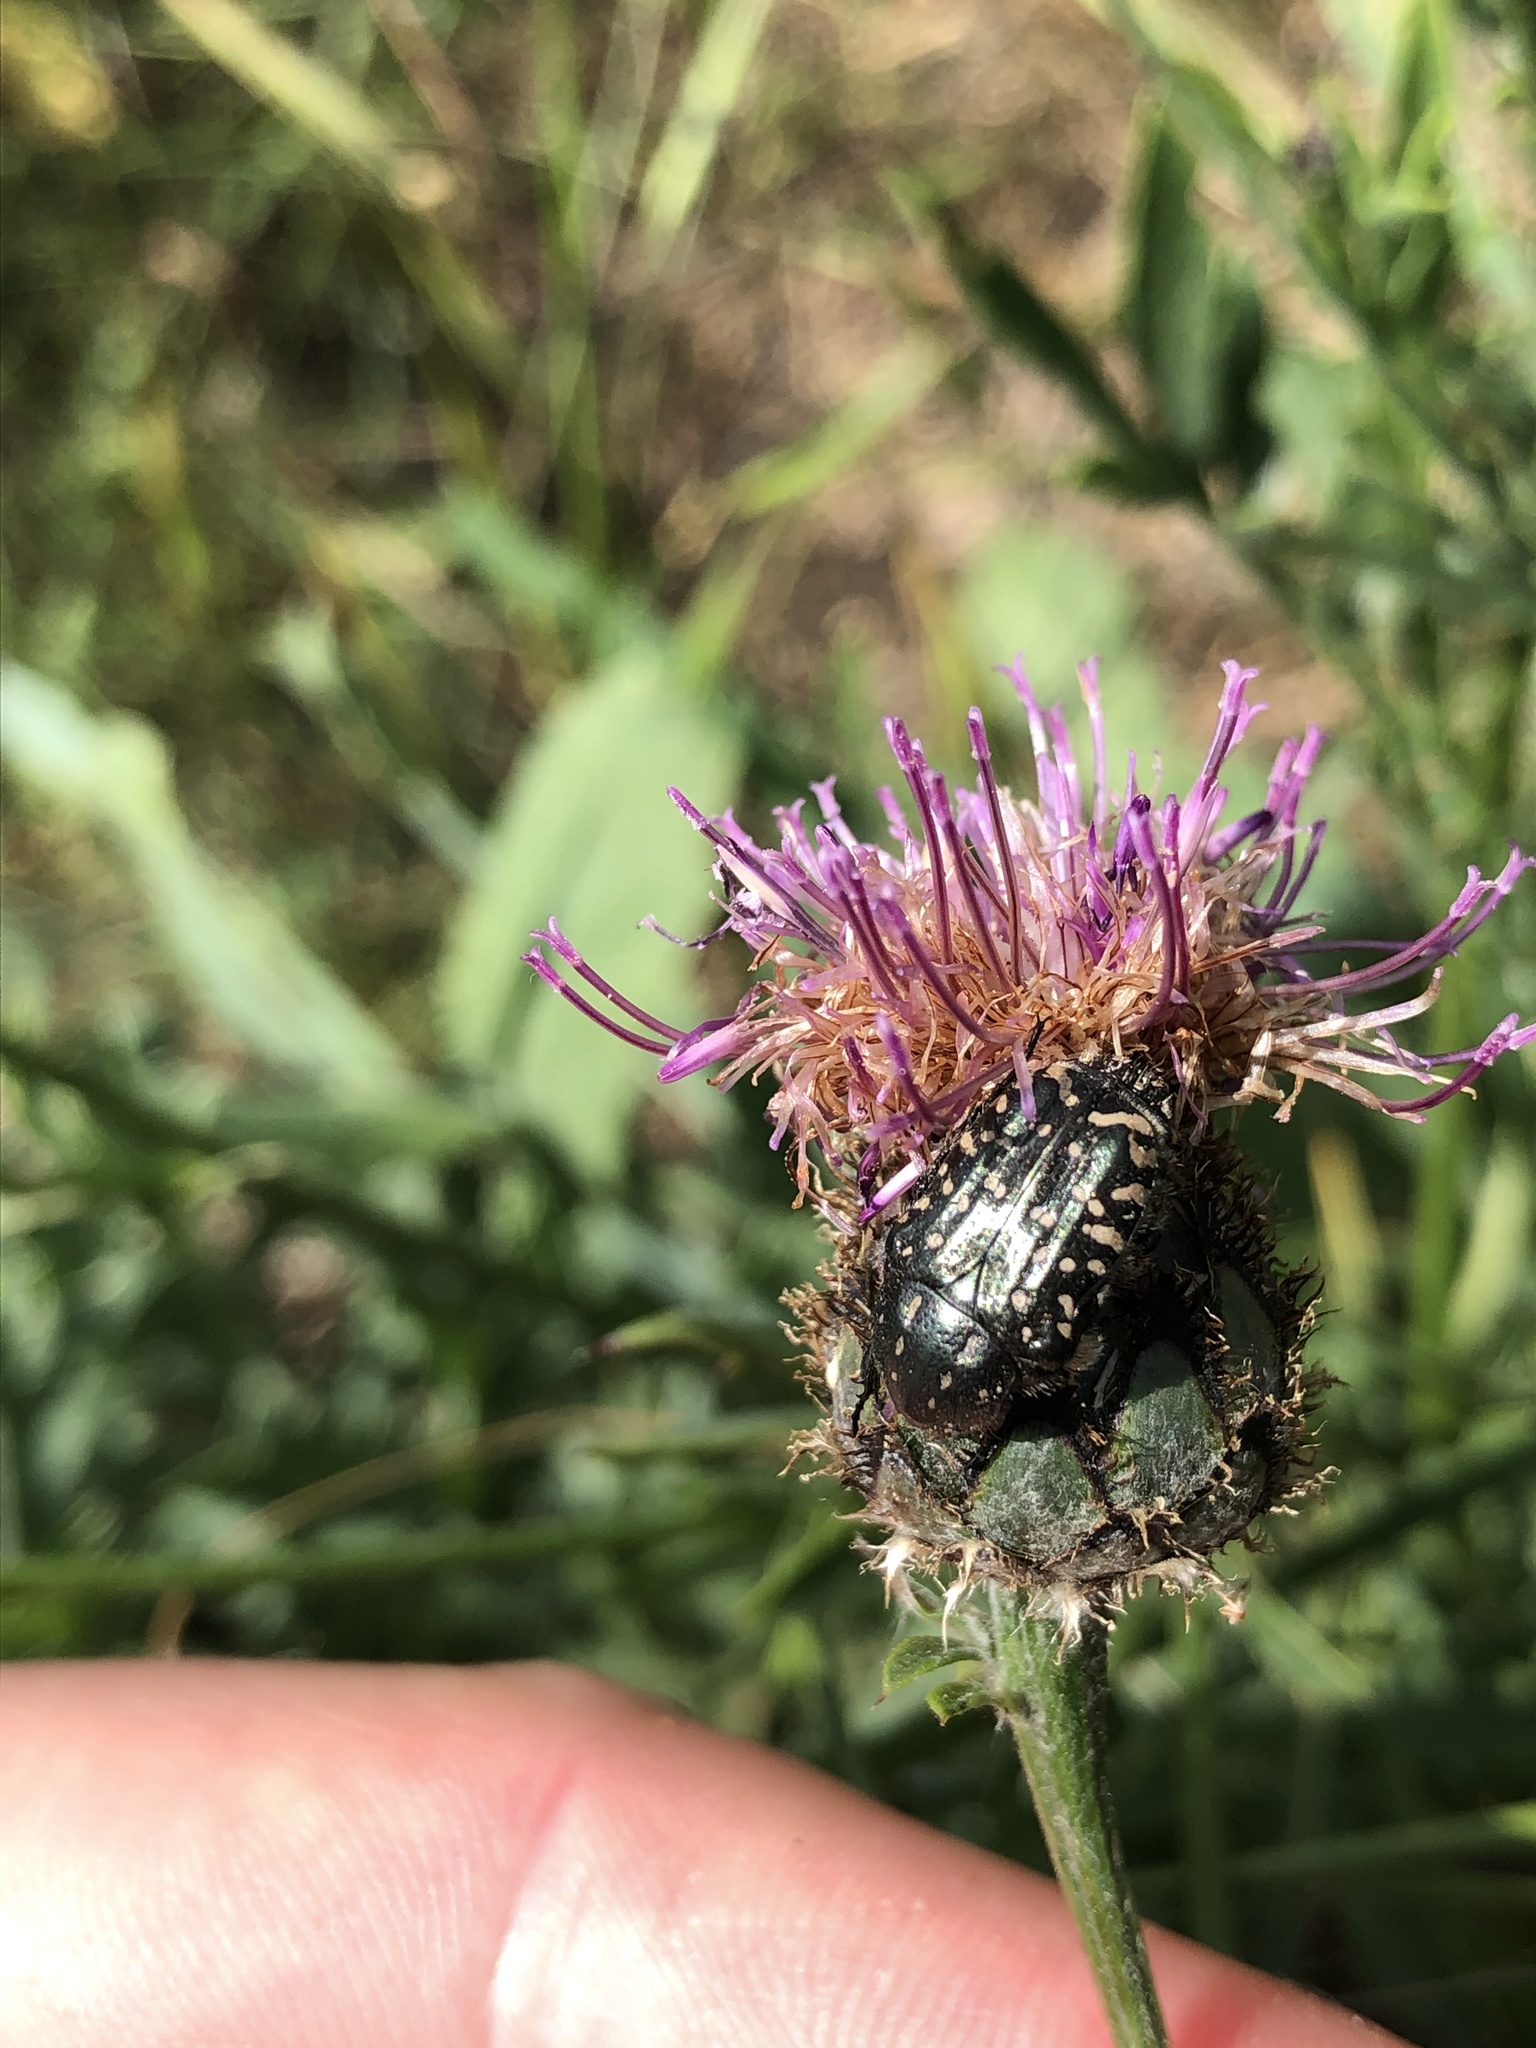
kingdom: Animalia
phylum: Arthropoda
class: Insecta
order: Coleoptera
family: Scarabaeidae
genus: Oxythyrea
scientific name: Oxythyrea funesta
